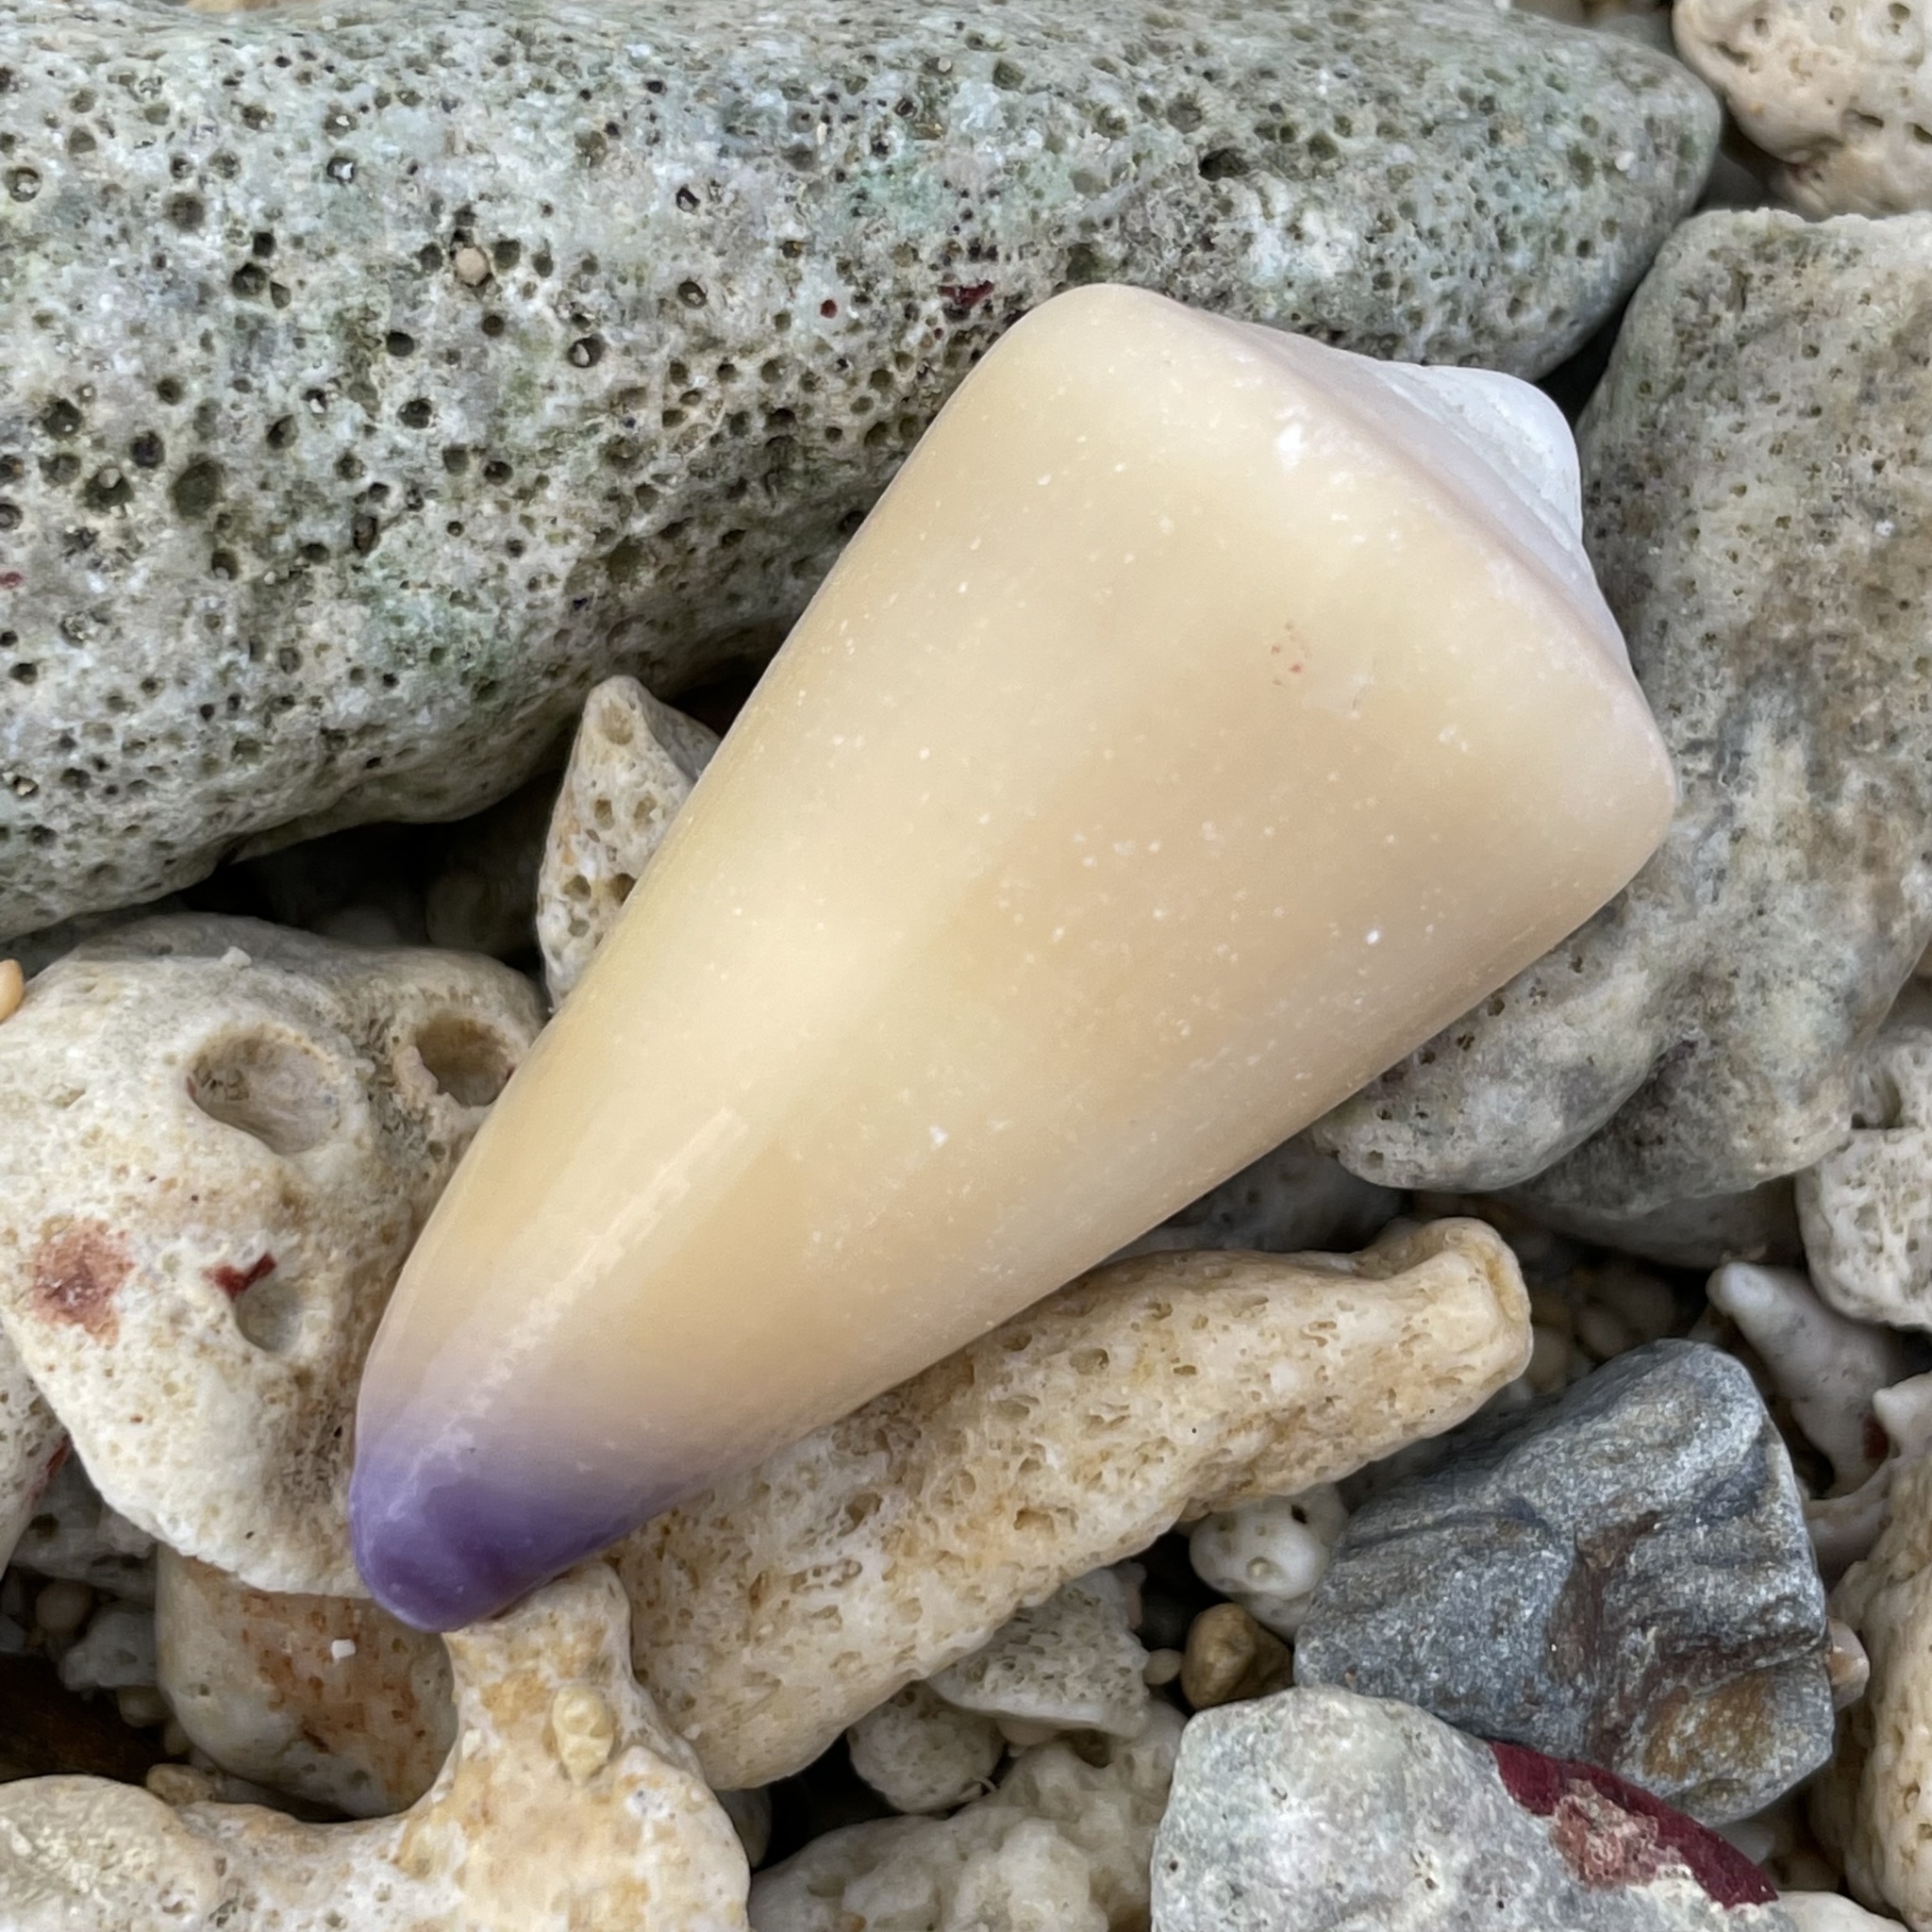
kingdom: Animalia
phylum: Mollusca
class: Gastropoda
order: Neogastropoda
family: Conidae
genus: Conus
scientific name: Conus virgo
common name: Virgin cone
